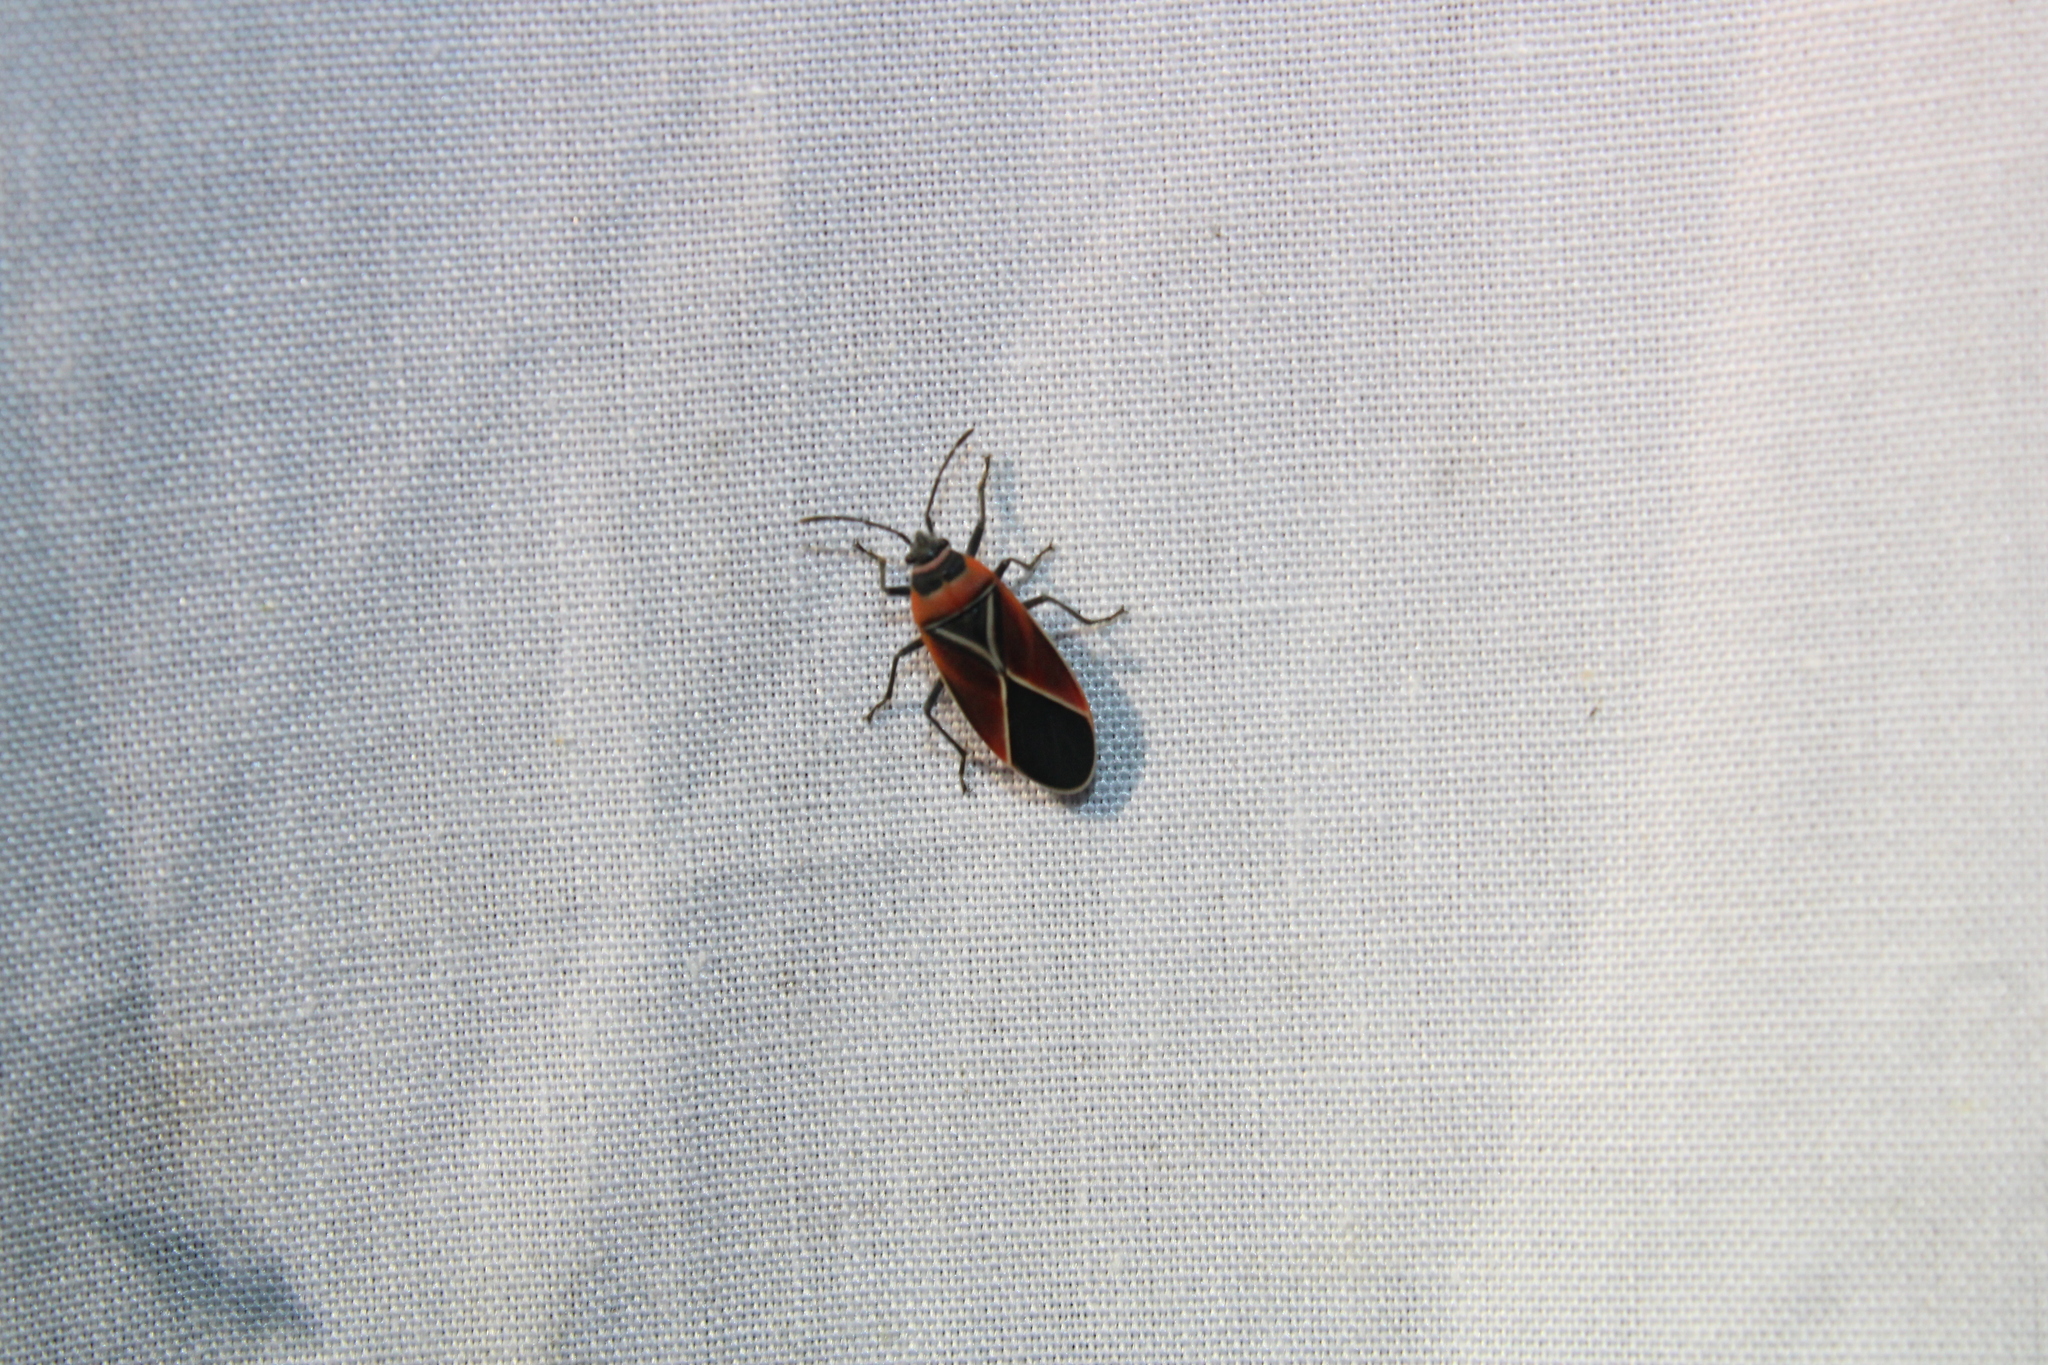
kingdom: Animalia
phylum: Arthropoda
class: Insecta
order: Hemiptera
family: Lygaeidae
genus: Neacoryphus
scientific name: Neacoryphus bicrucis
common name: Lygaeid bug
